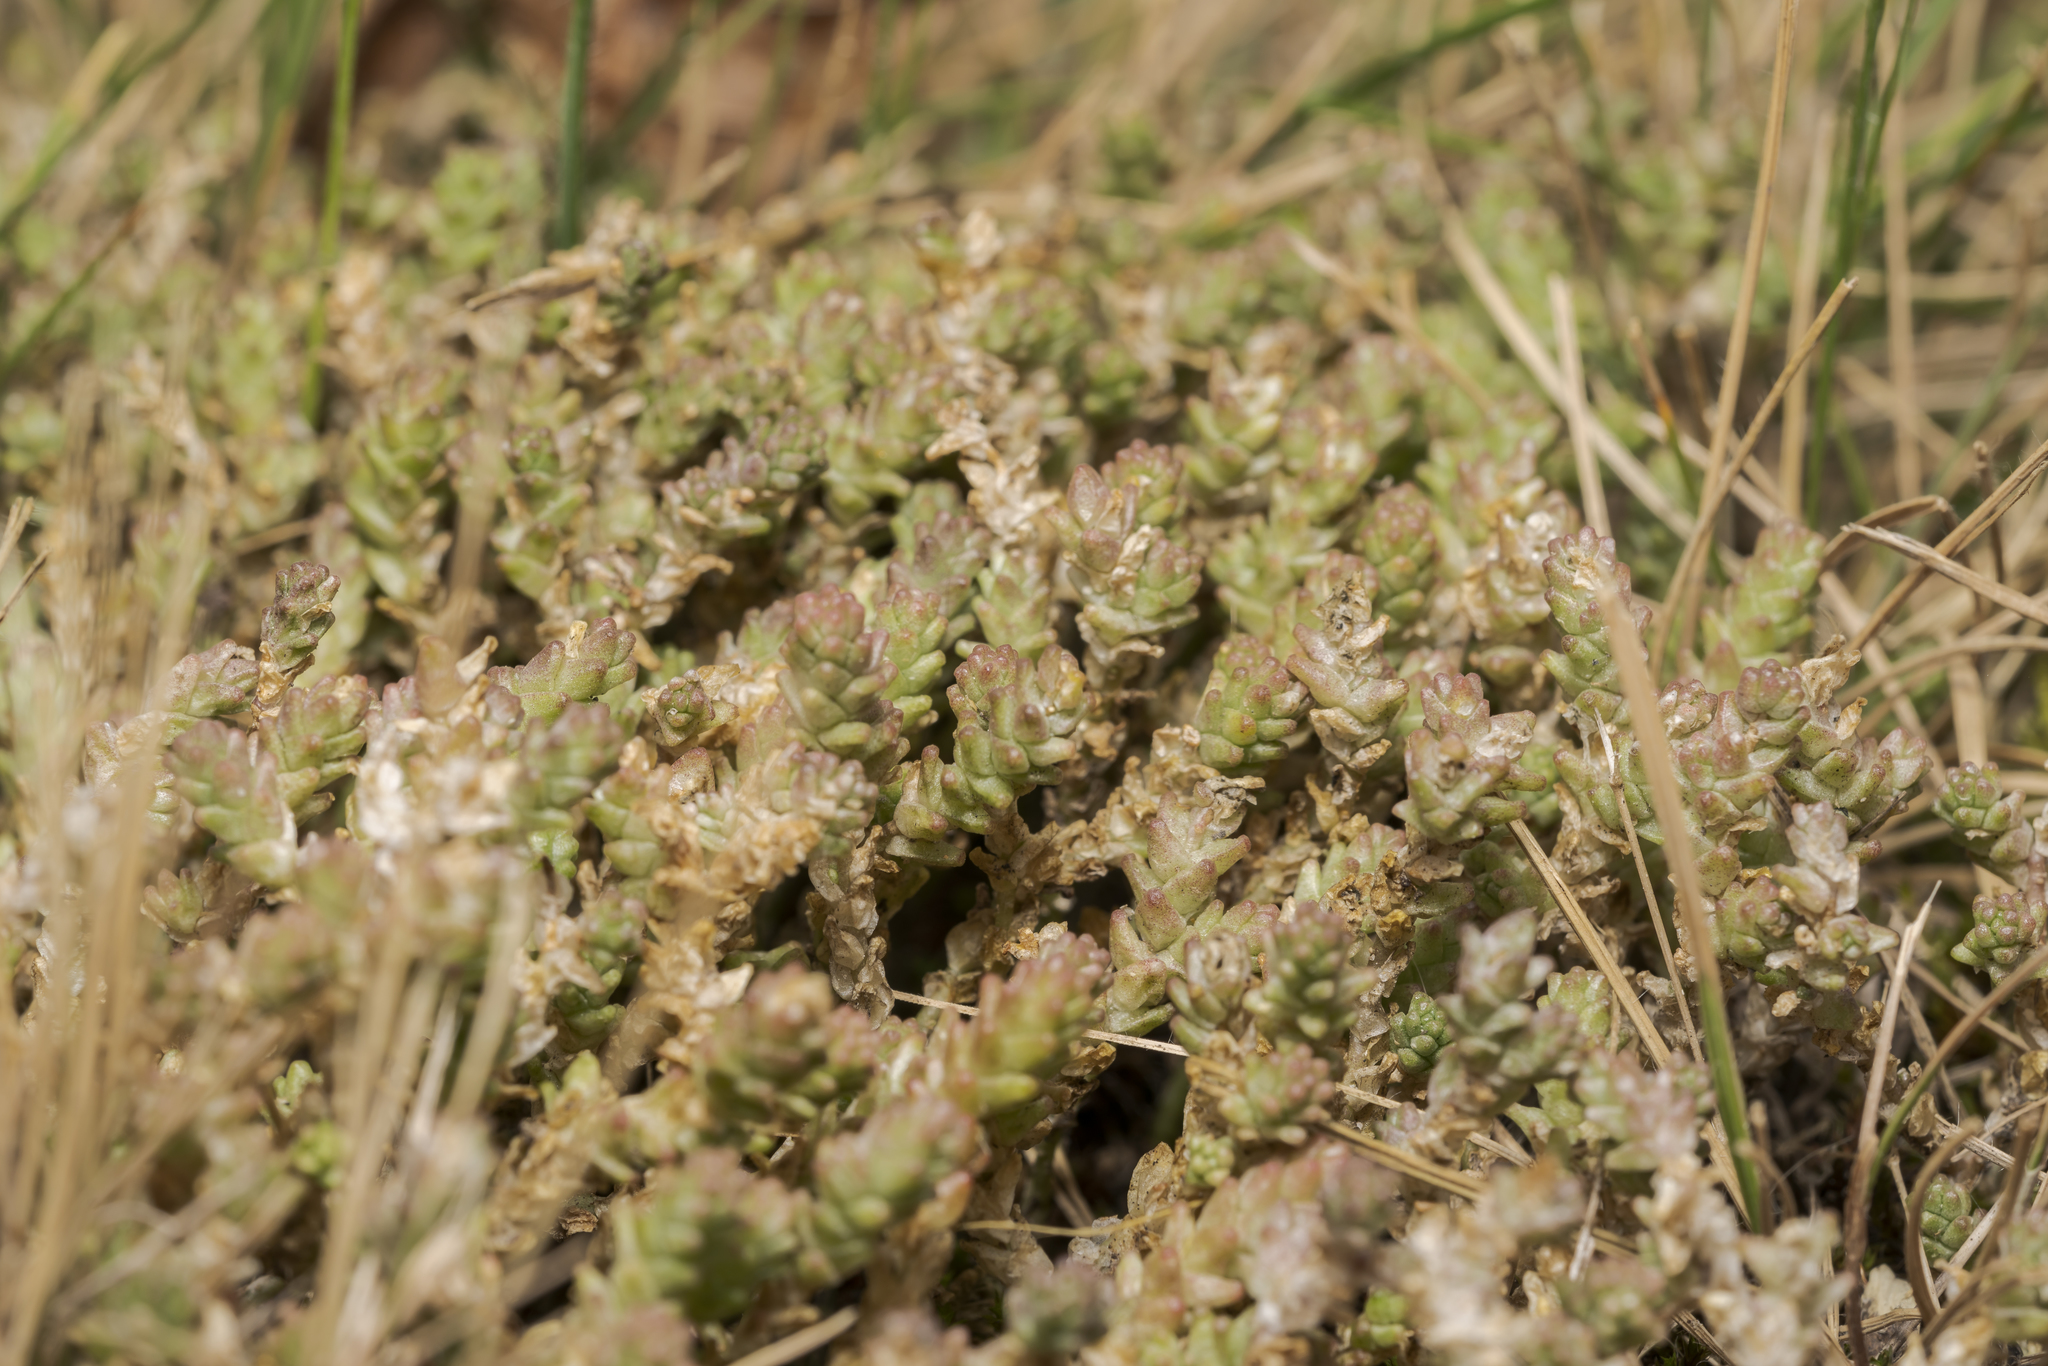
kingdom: Plantae
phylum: Tracheophyta
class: Magnoliopsida
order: Saxifragales
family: Crassulaceae
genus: Sedum
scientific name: Sedum acre
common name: Biting stonecrop
